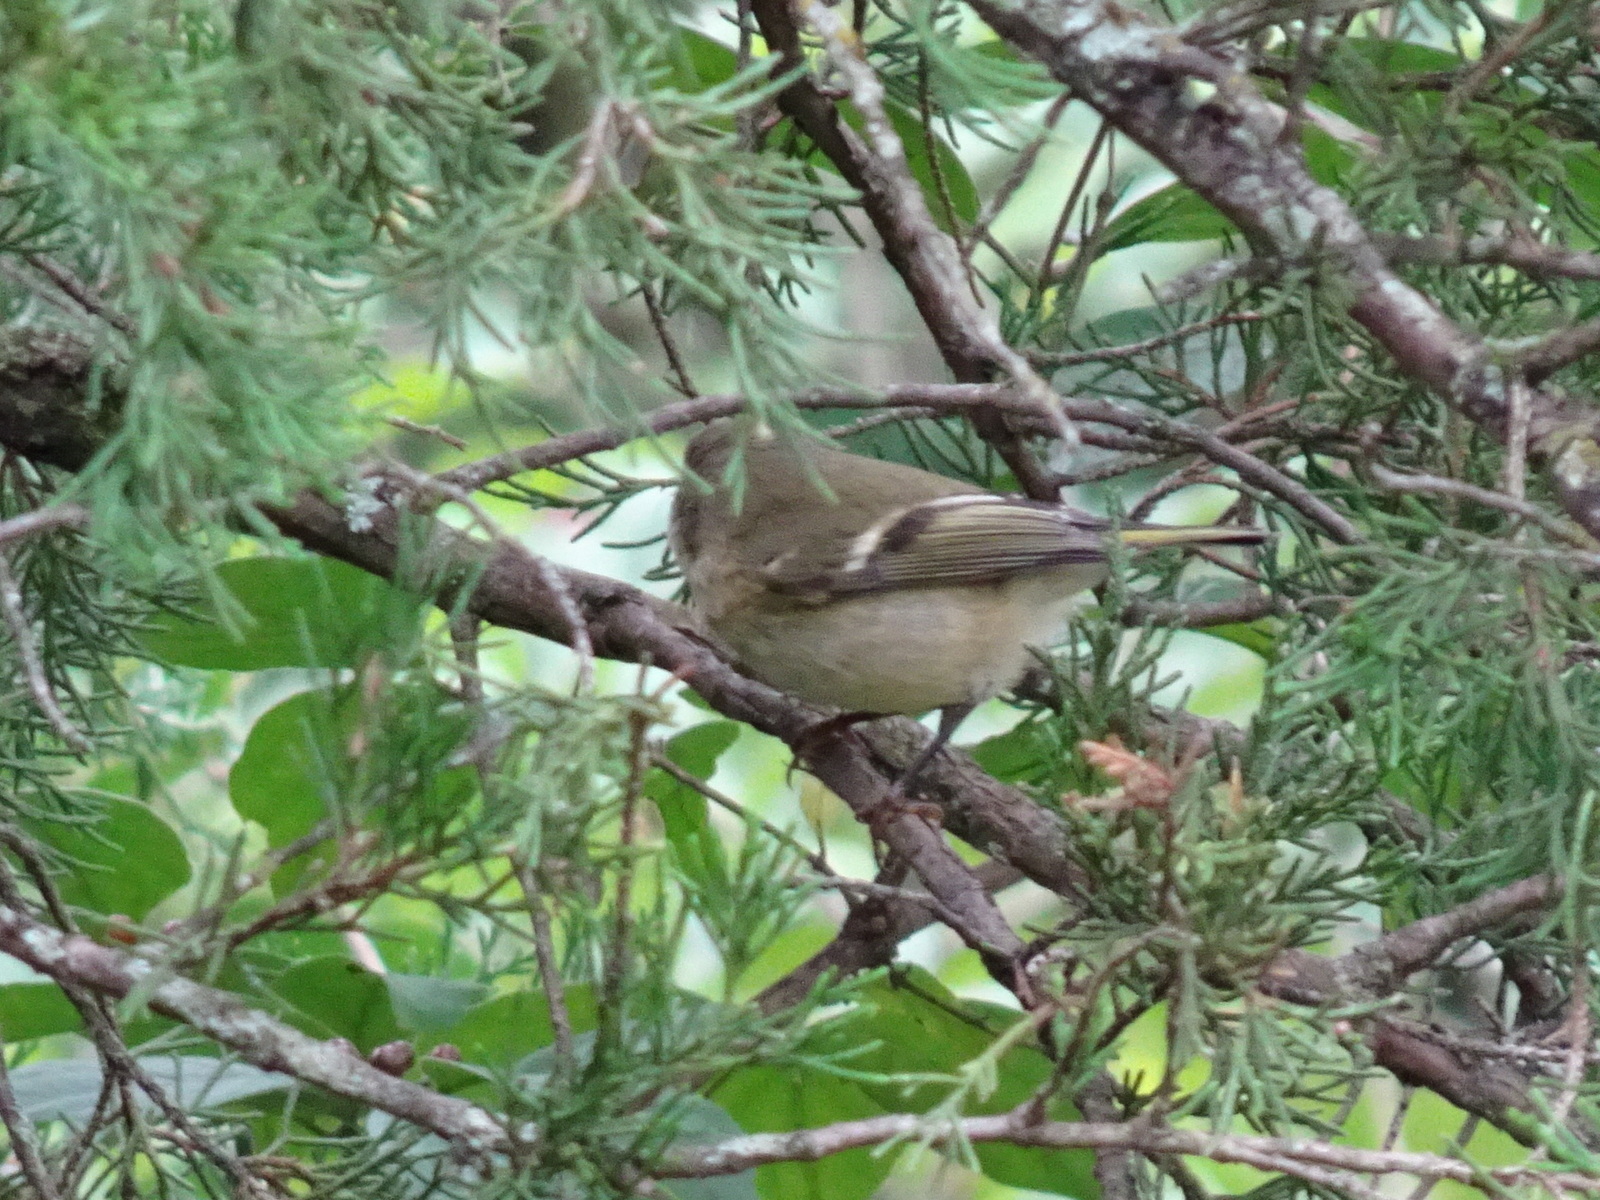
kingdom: Animalia
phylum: Chordata
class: Aves
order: Passeriformes
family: Regulidae
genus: Regulus
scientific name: Regulus calendula
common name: Ruby-crowned kinglet
